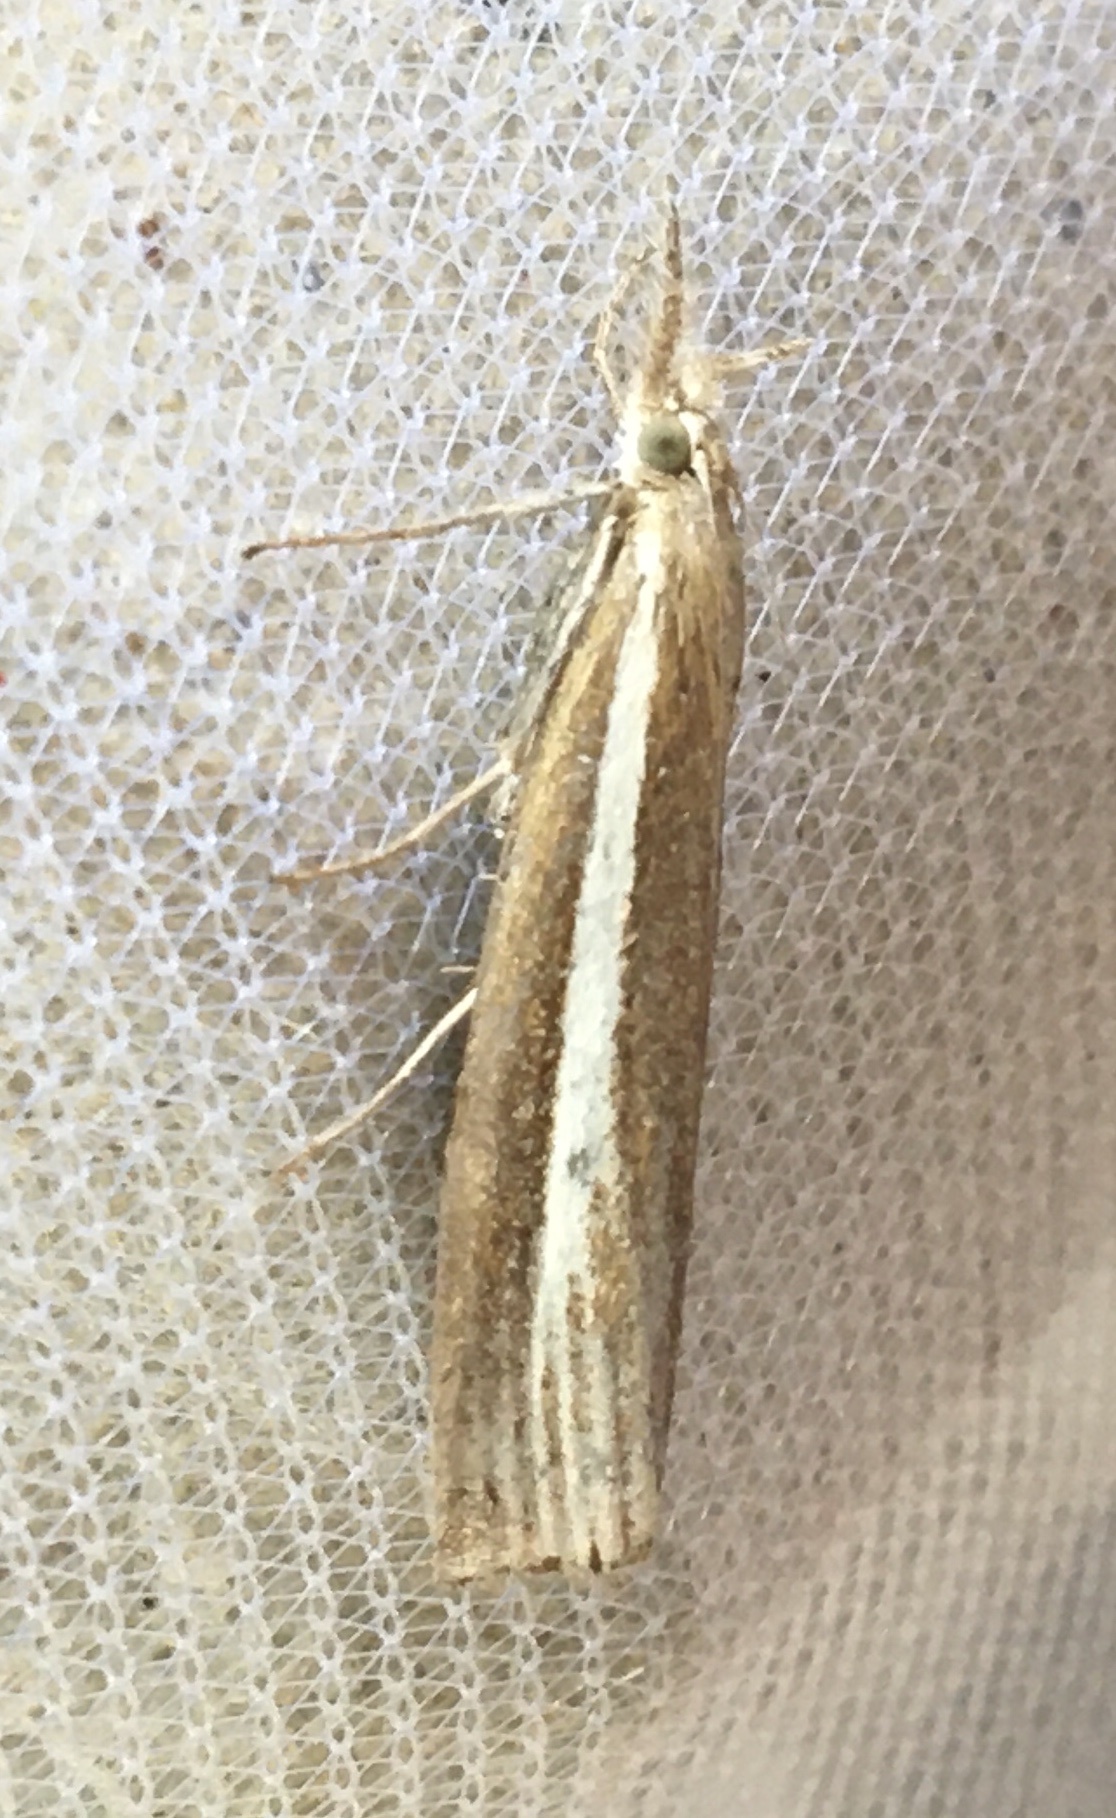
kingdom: Animalia
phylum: Arthropoda
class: Insecta
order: Lepidoptera
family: Crambidae
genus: Agriphila
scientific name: Agriphila tristellus
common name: Common grass-veneer
